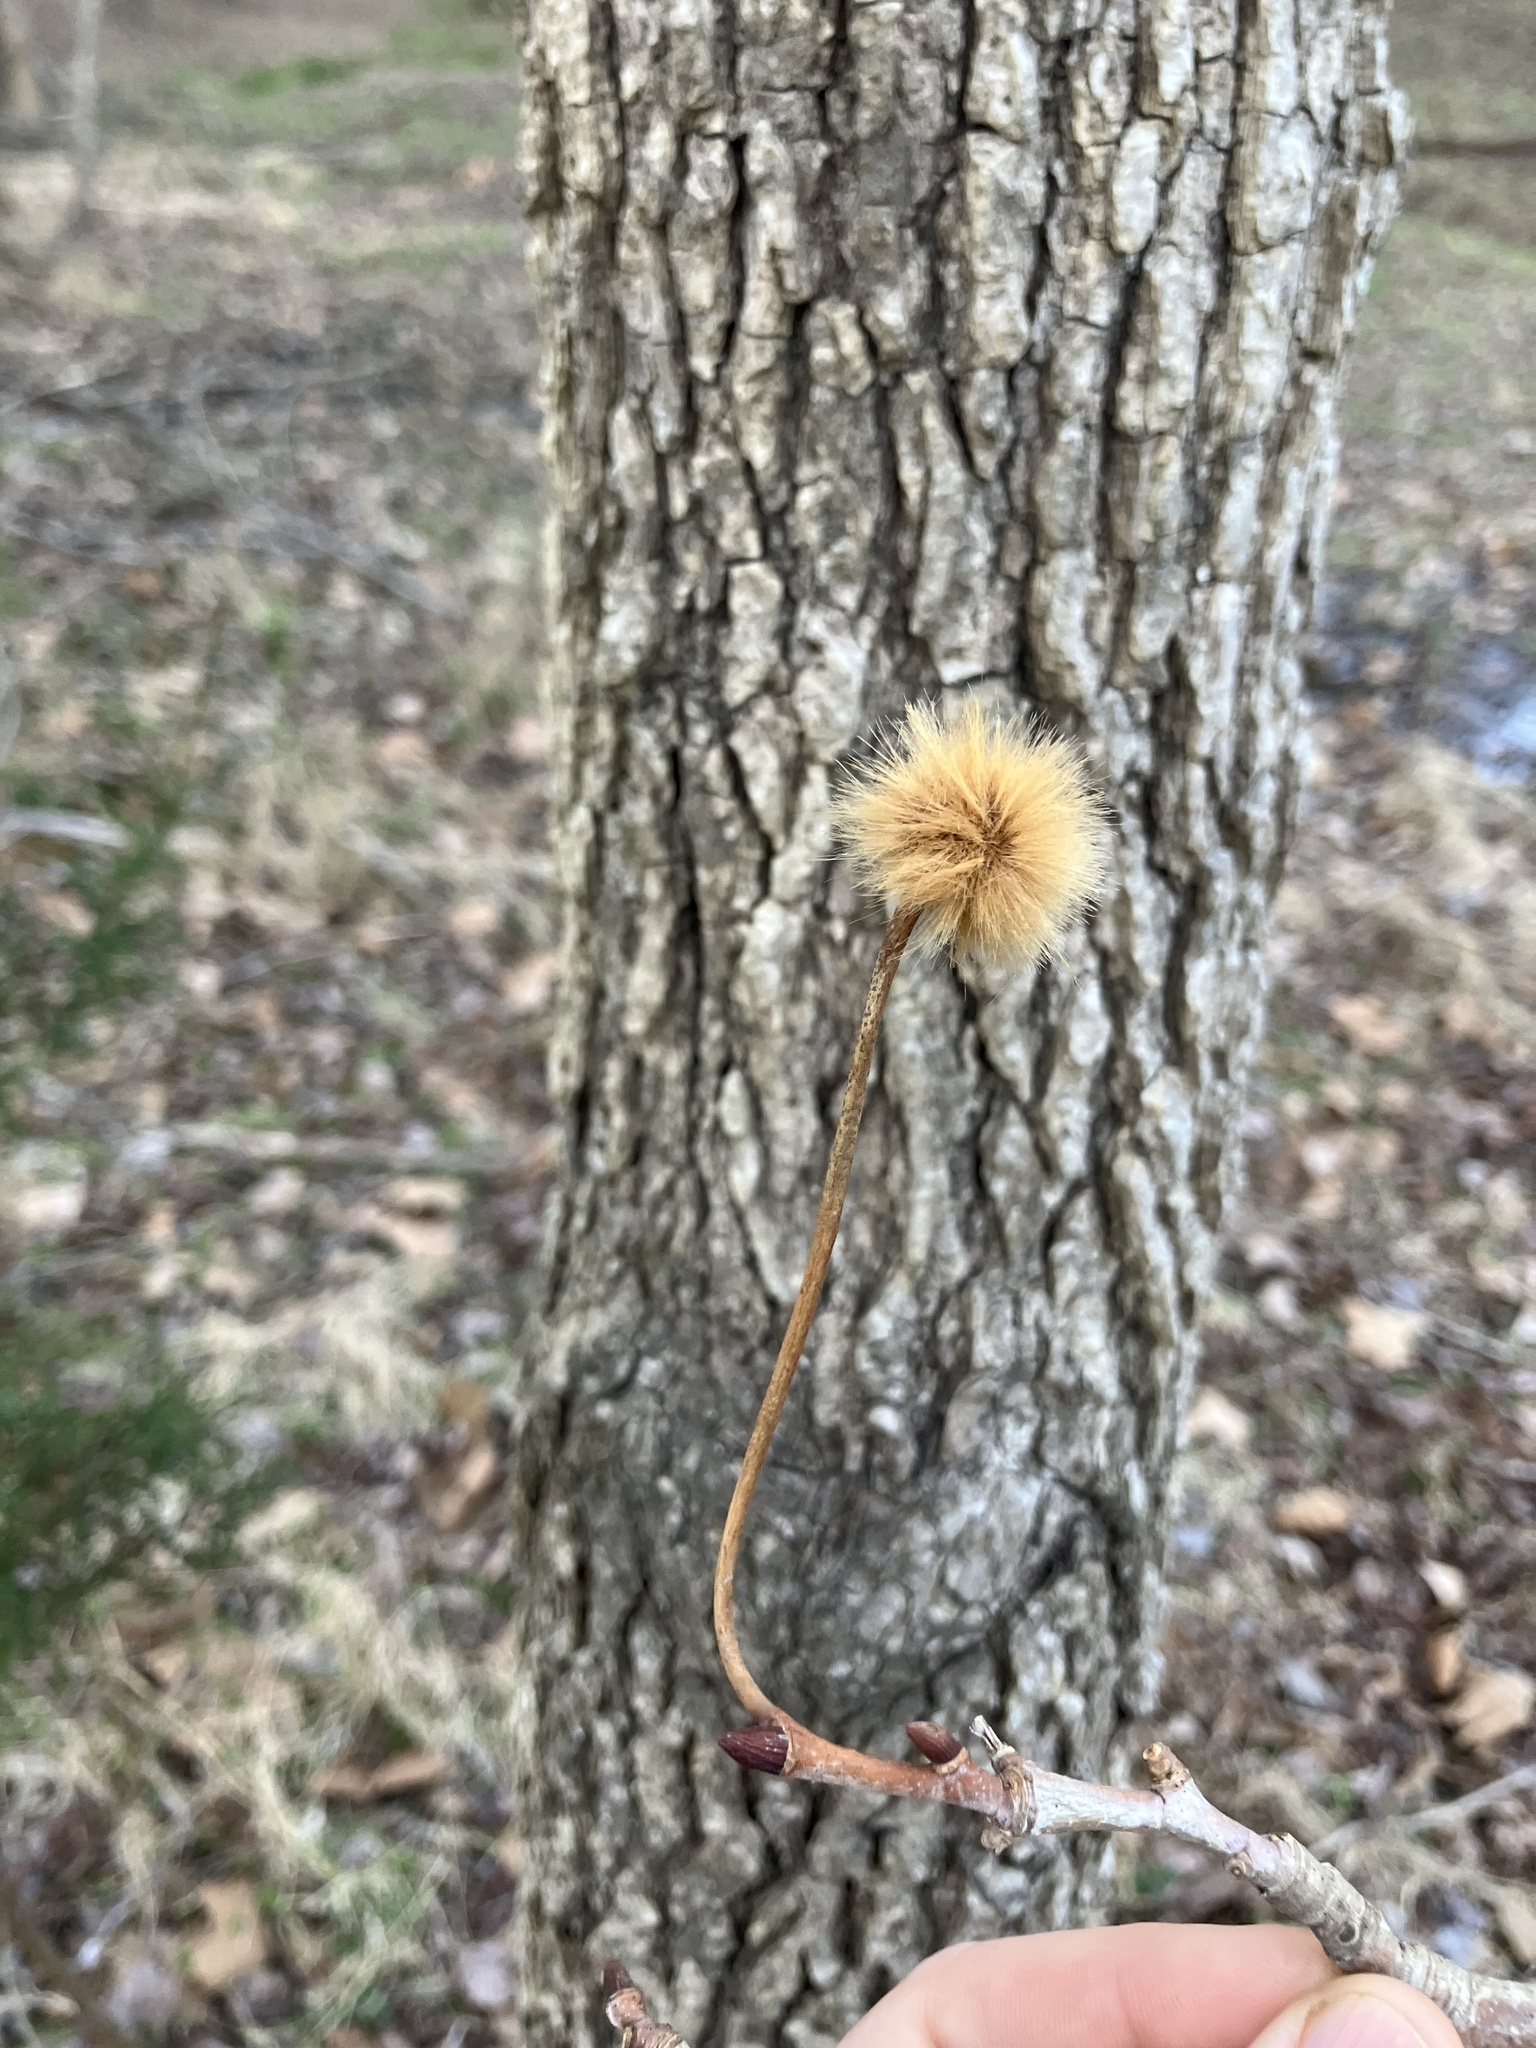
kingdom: Plantae
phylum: Tracheophyta
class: Magnoliopsida
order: Proteales
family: Platanaceae
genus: Platanus
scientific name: Platanus occidentalis
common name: American sycamore
